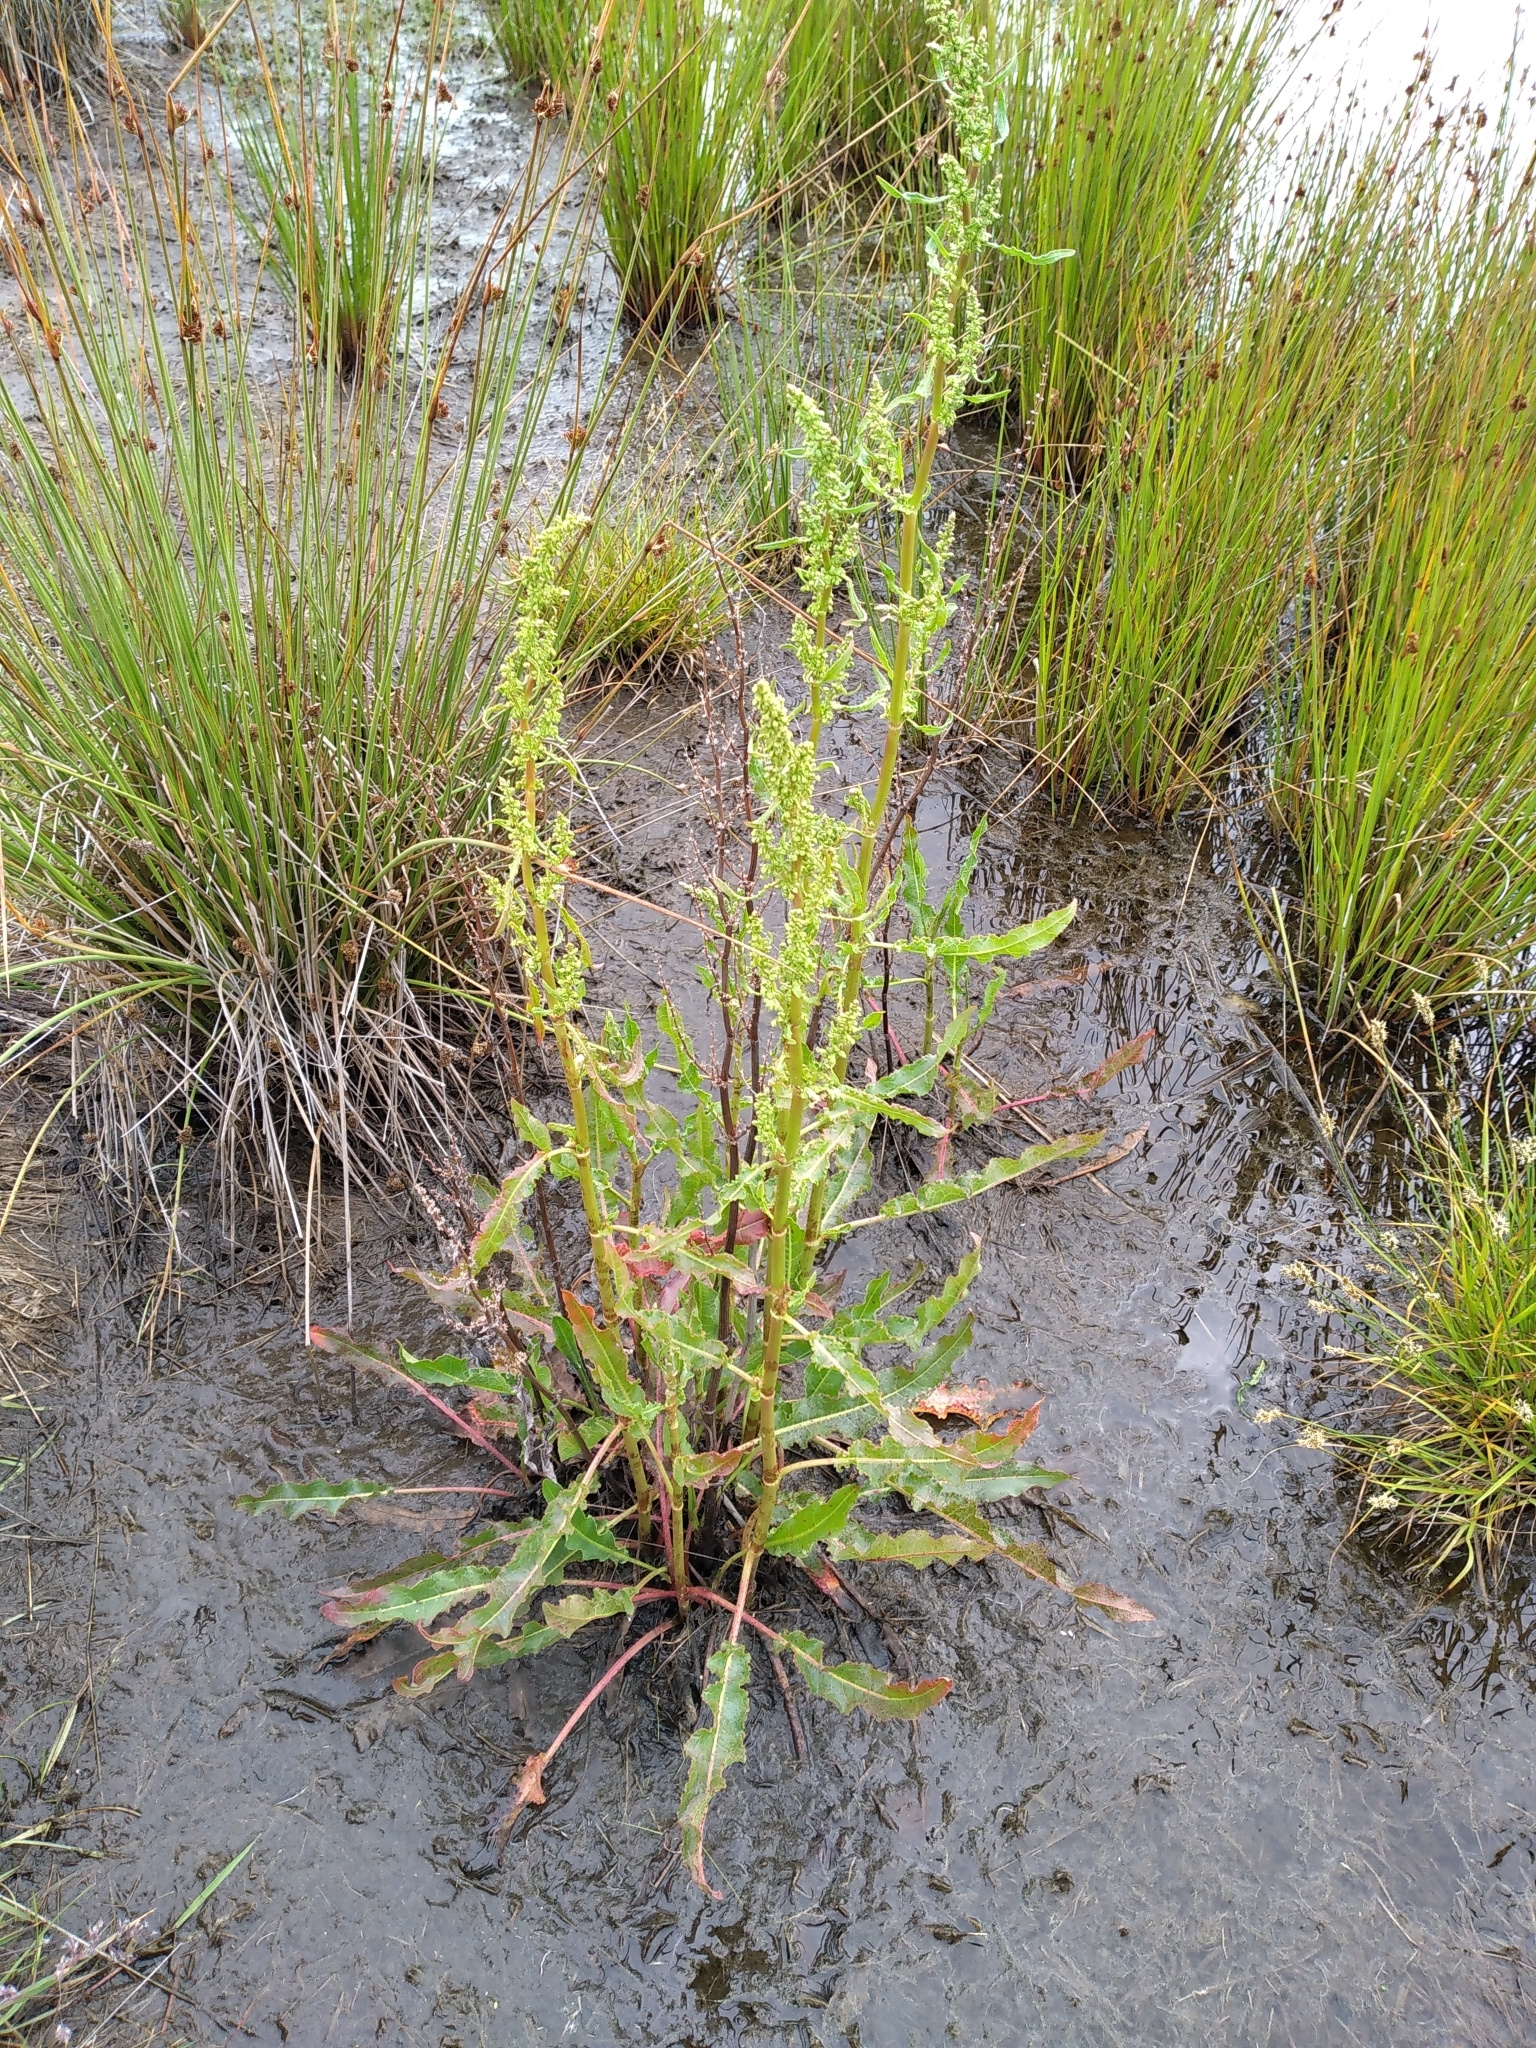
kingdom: Plantae
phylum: Tracheophyta
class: Magnoliopsida
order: Caryophyllales
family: Polygonaceae
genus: Rumex
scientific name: Rumex crispus
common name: Curled dock
